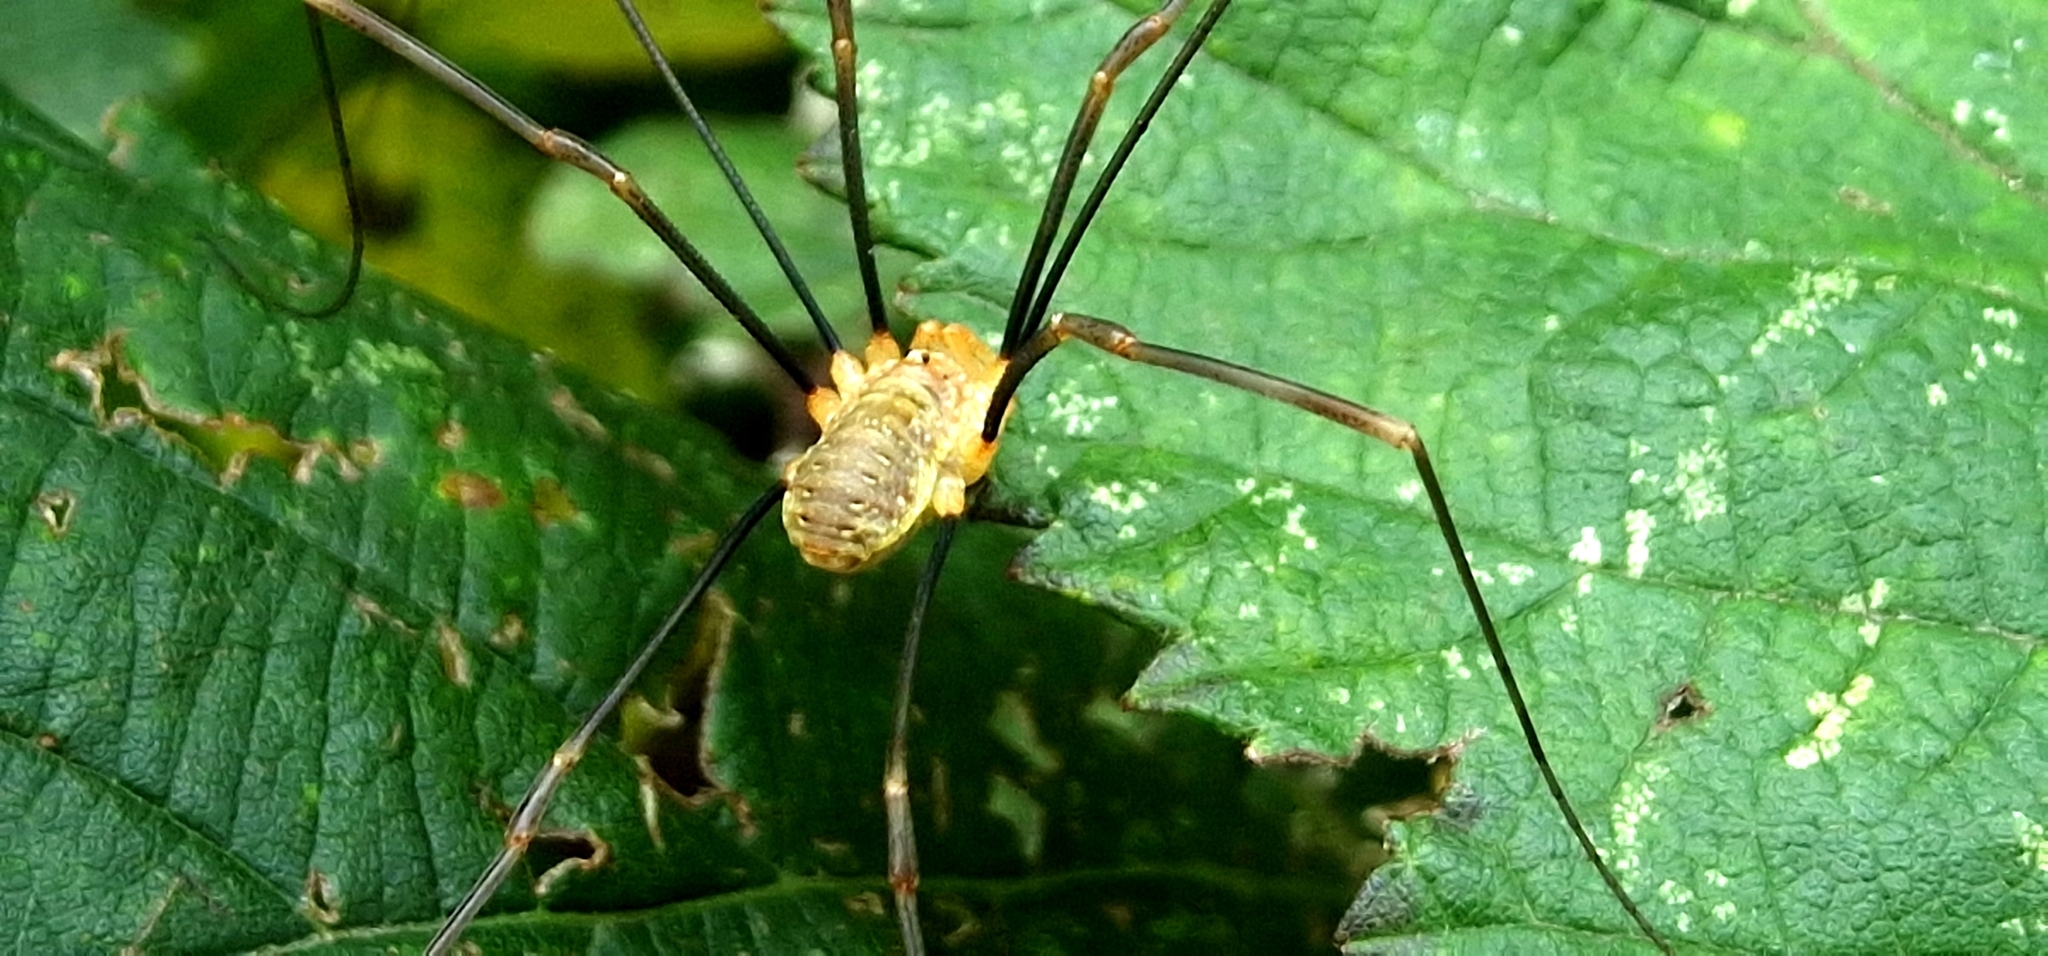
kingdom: Animalia
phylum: Arthropoda
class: Arachnida
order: Opiliones
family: Phalangiidae
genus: Opilio
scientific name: Opilio canestrinii
